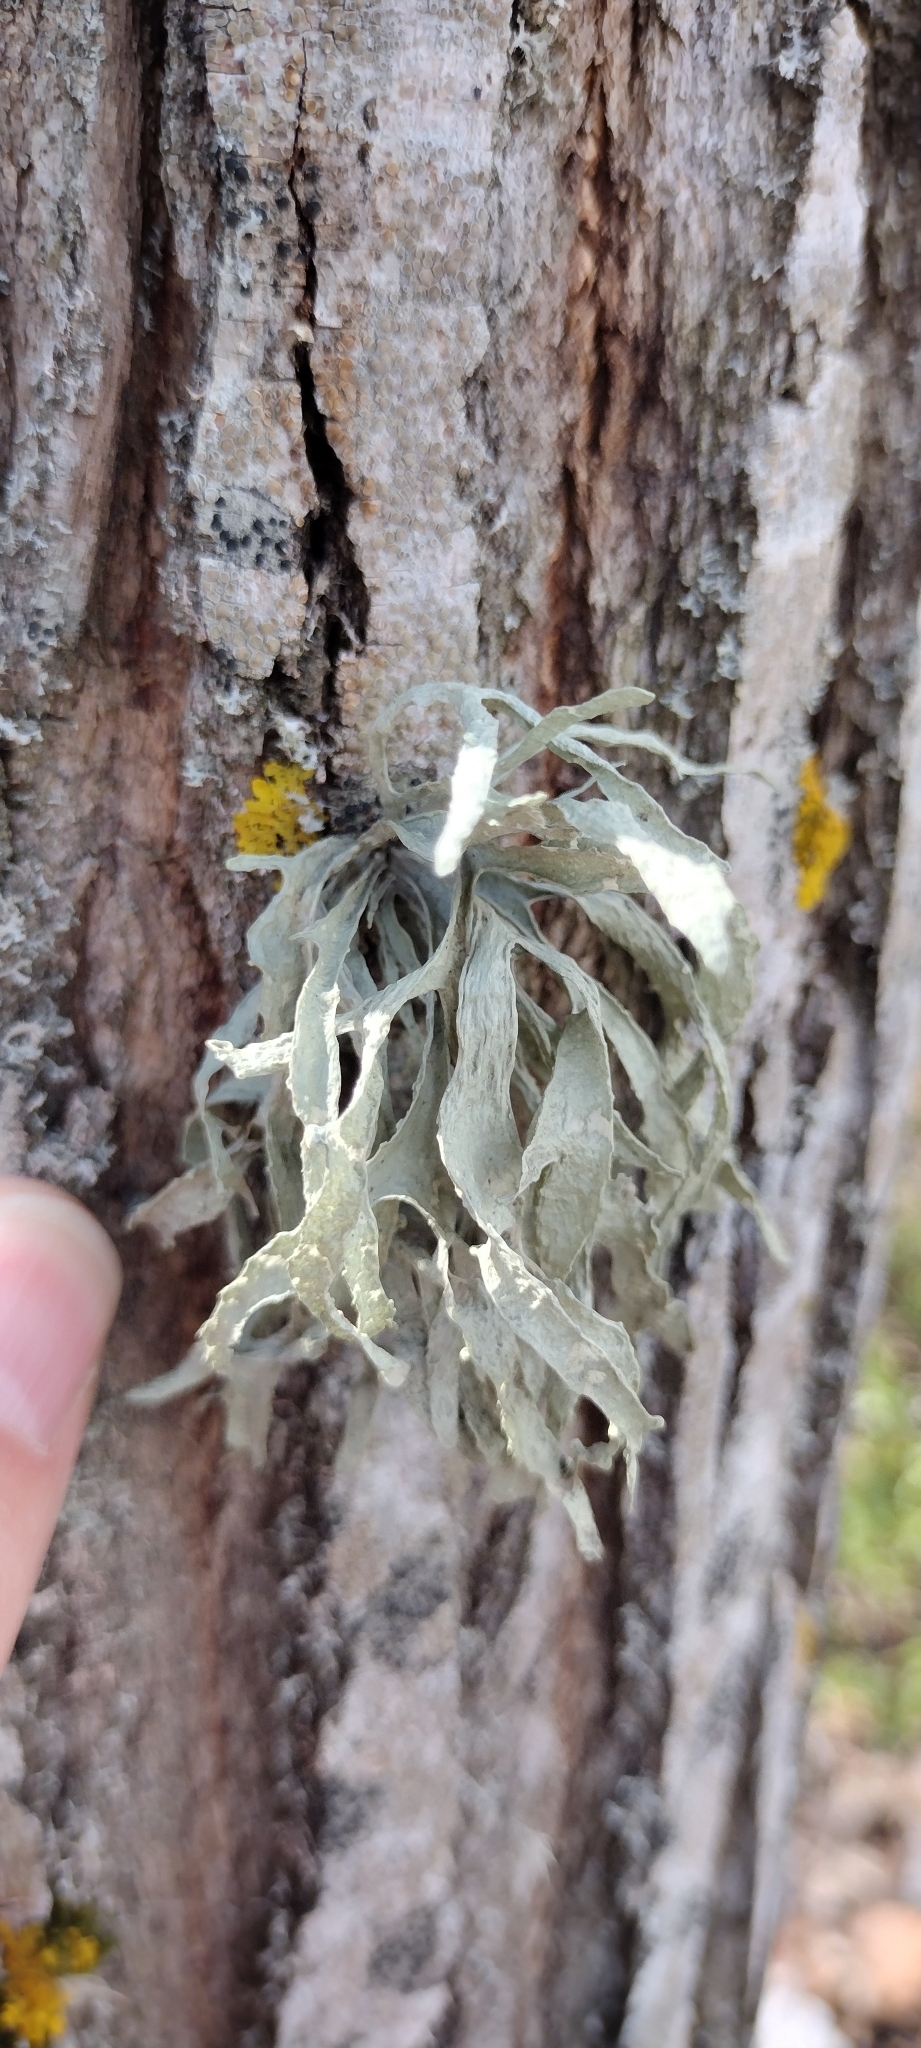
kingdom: Fungi
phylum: Ascomycota
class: Lecanoromycetes
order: Lecanorales
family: Ramalinaceae
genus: Ramalina
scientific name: Ramalina fraxinea
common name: Cartilage lichen
